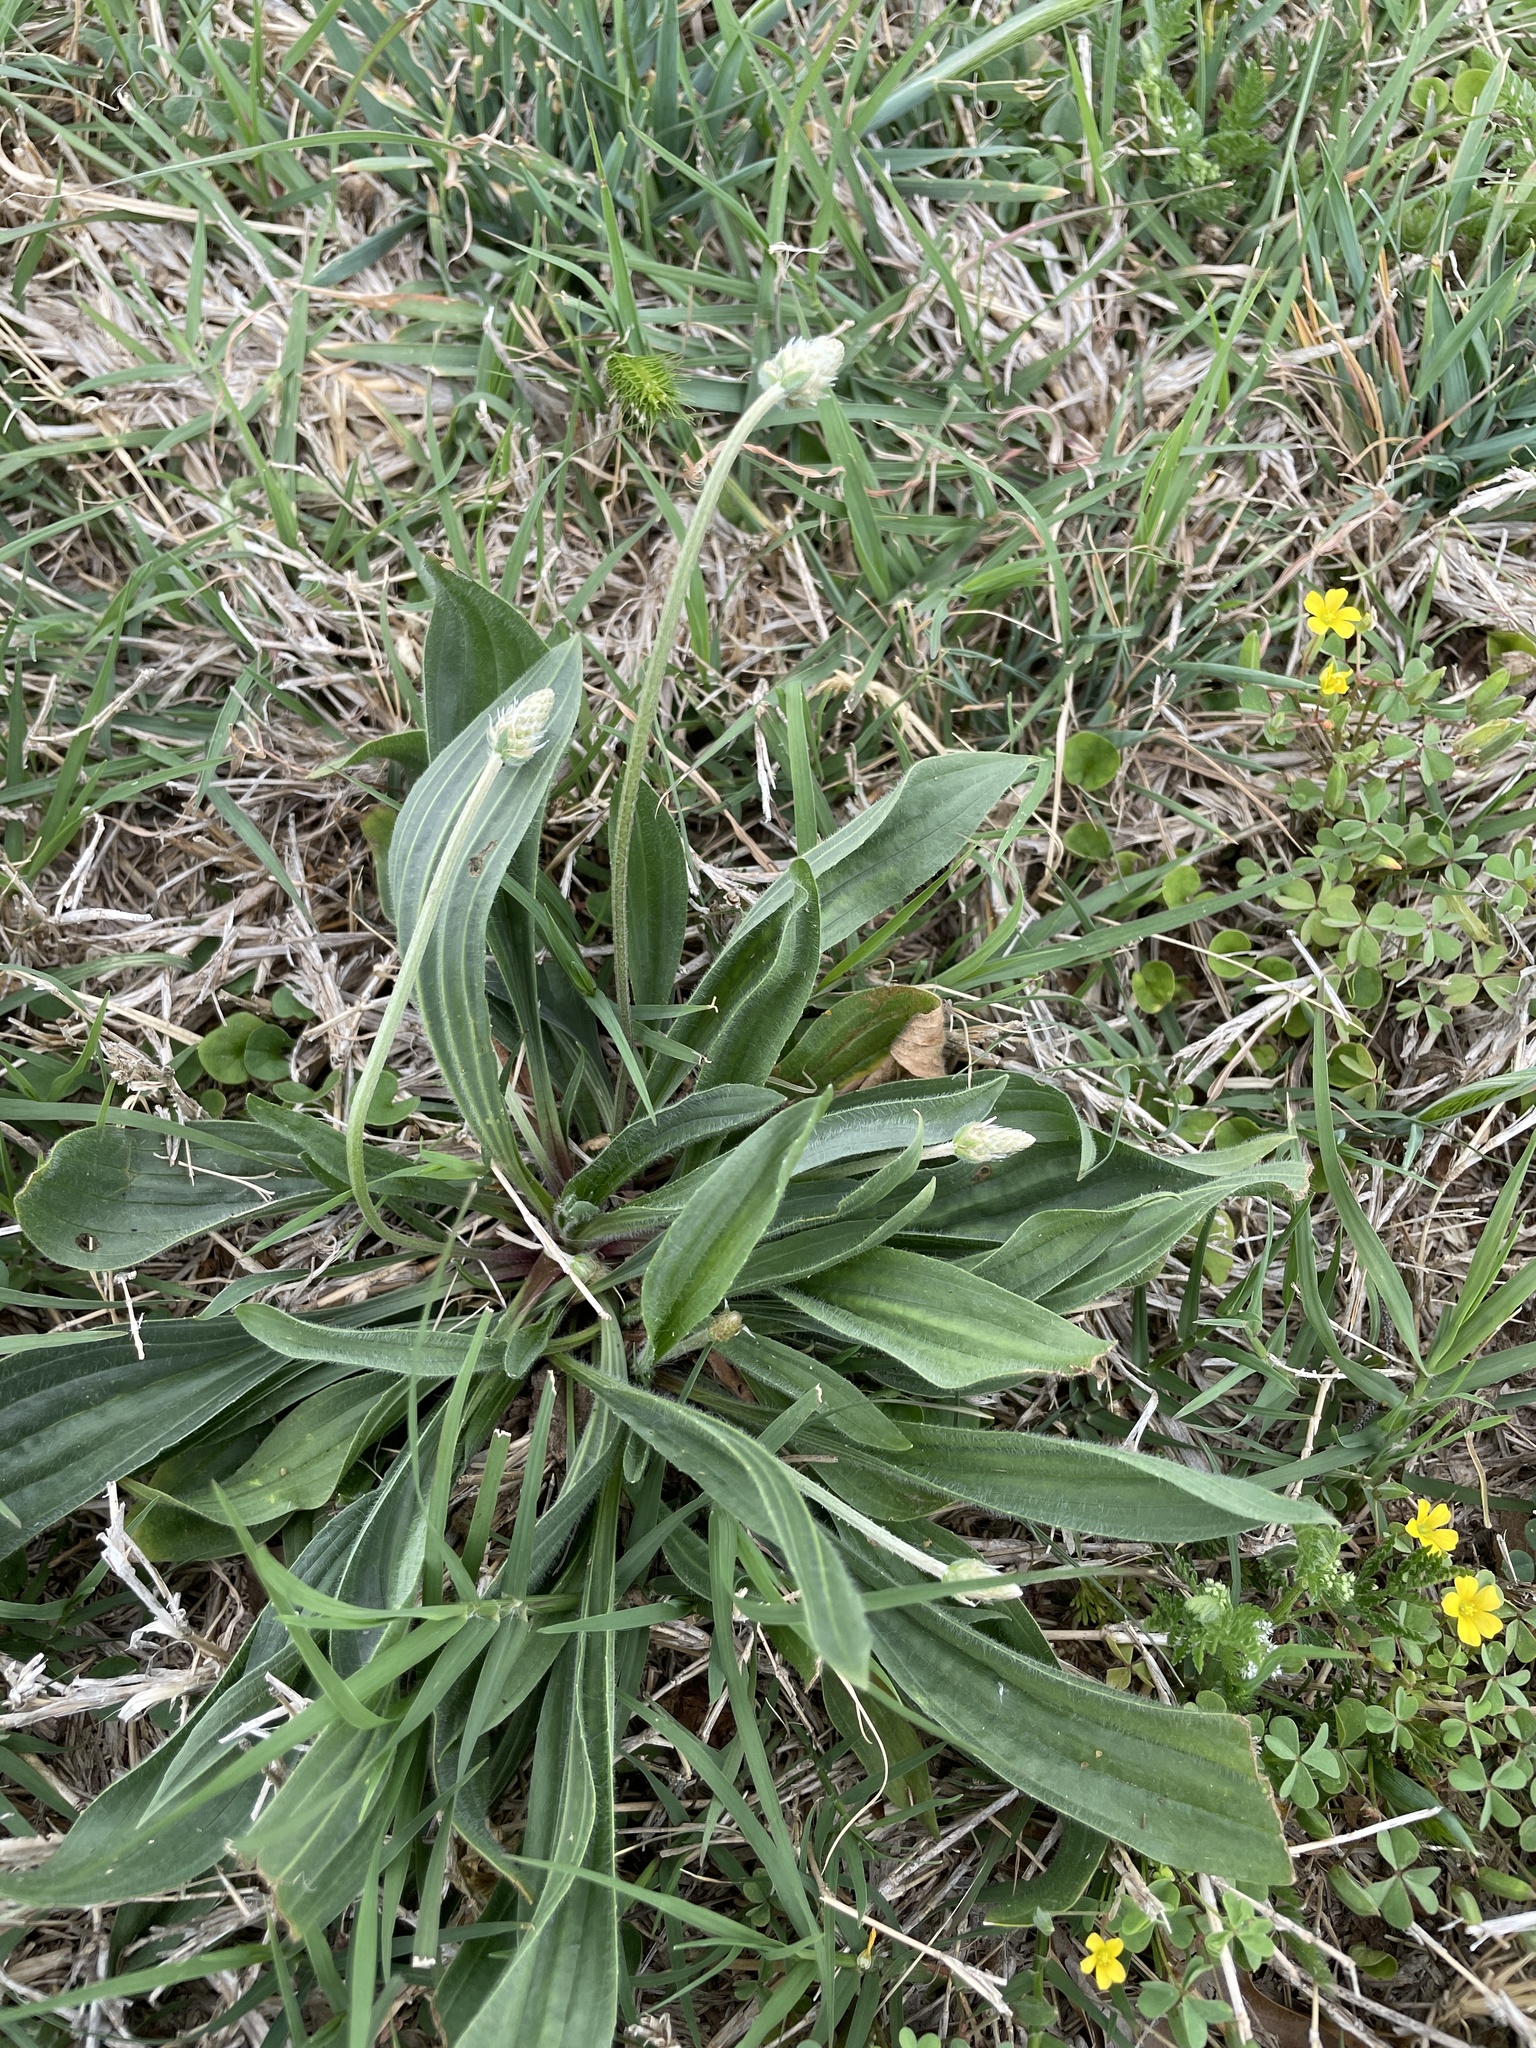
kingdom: Plantae
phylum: Tracheophyta
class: Magnoliopsida
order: Lamiales
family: Plantaginaceae
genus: Plantago
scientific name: Plantago lanceolata
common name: Ribwort plantain
